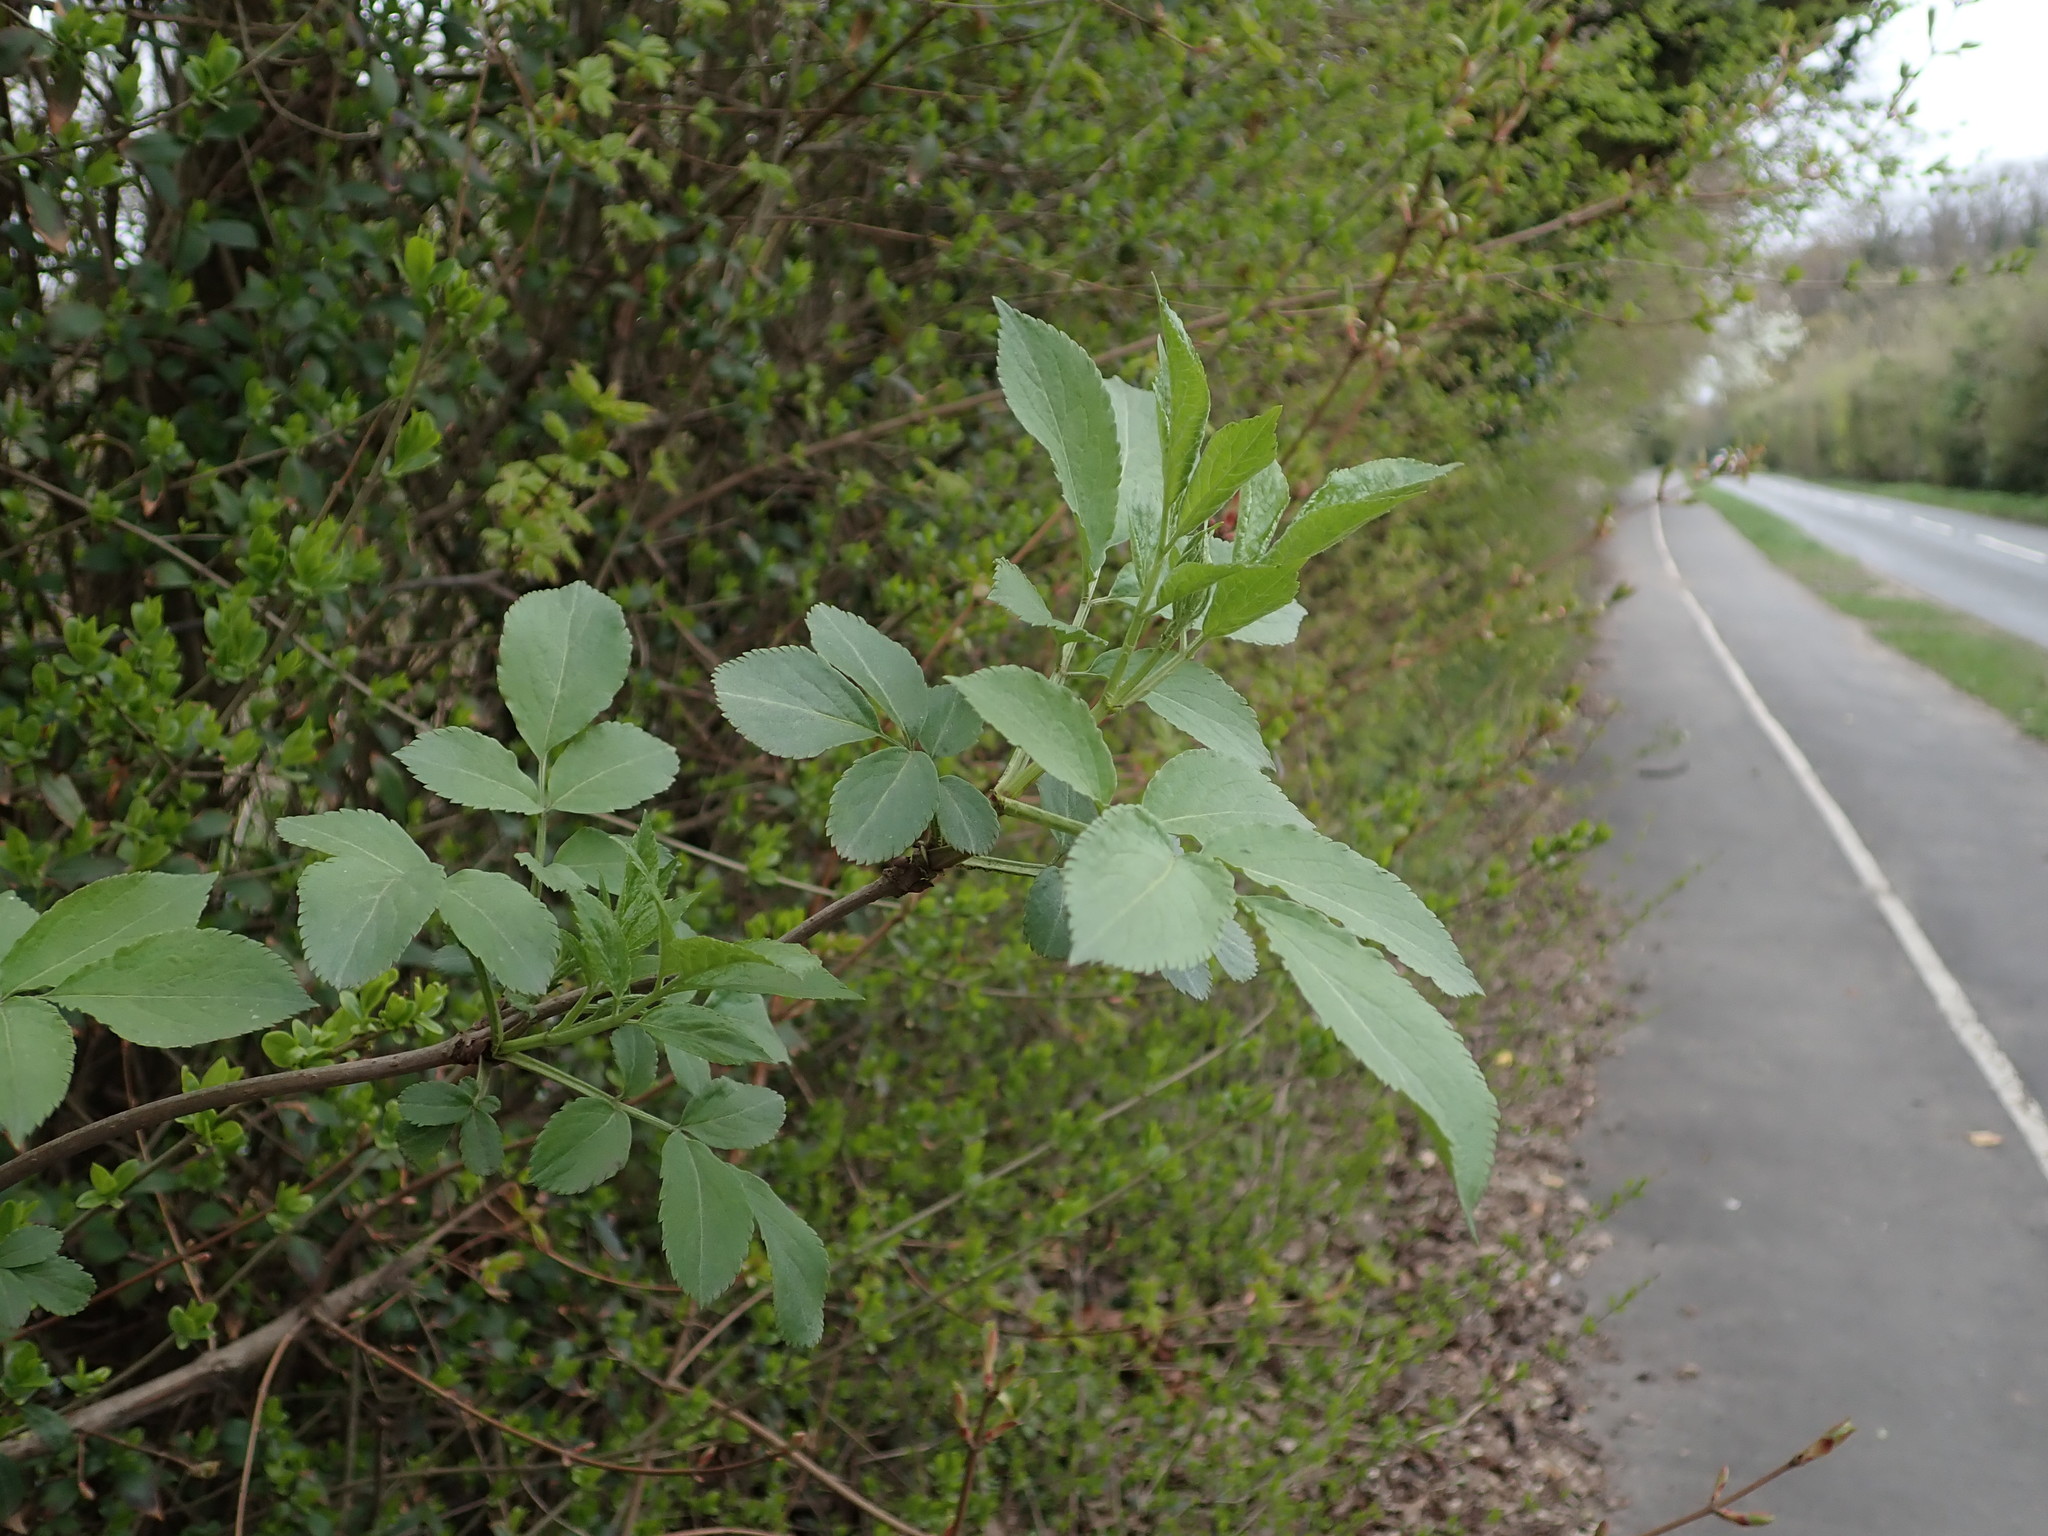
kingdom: Plantae
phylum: Tracheophyta
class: Magnoliopsida
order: Dipsacales
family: Viburnaceae
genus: Sambucus
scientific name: Sambucus nigra
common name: Elder
